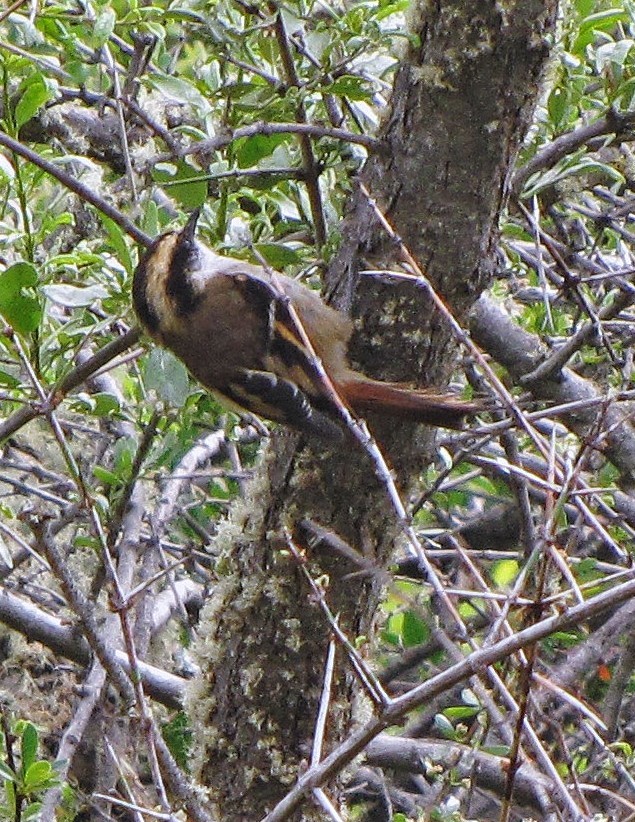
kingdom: Animalia
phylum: Chordata
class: Aves
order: Passeriformes
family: Furnariidae
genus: Aphrastura
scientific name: Aphrastura spinicauda
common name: Thorn-tailed rayadito
